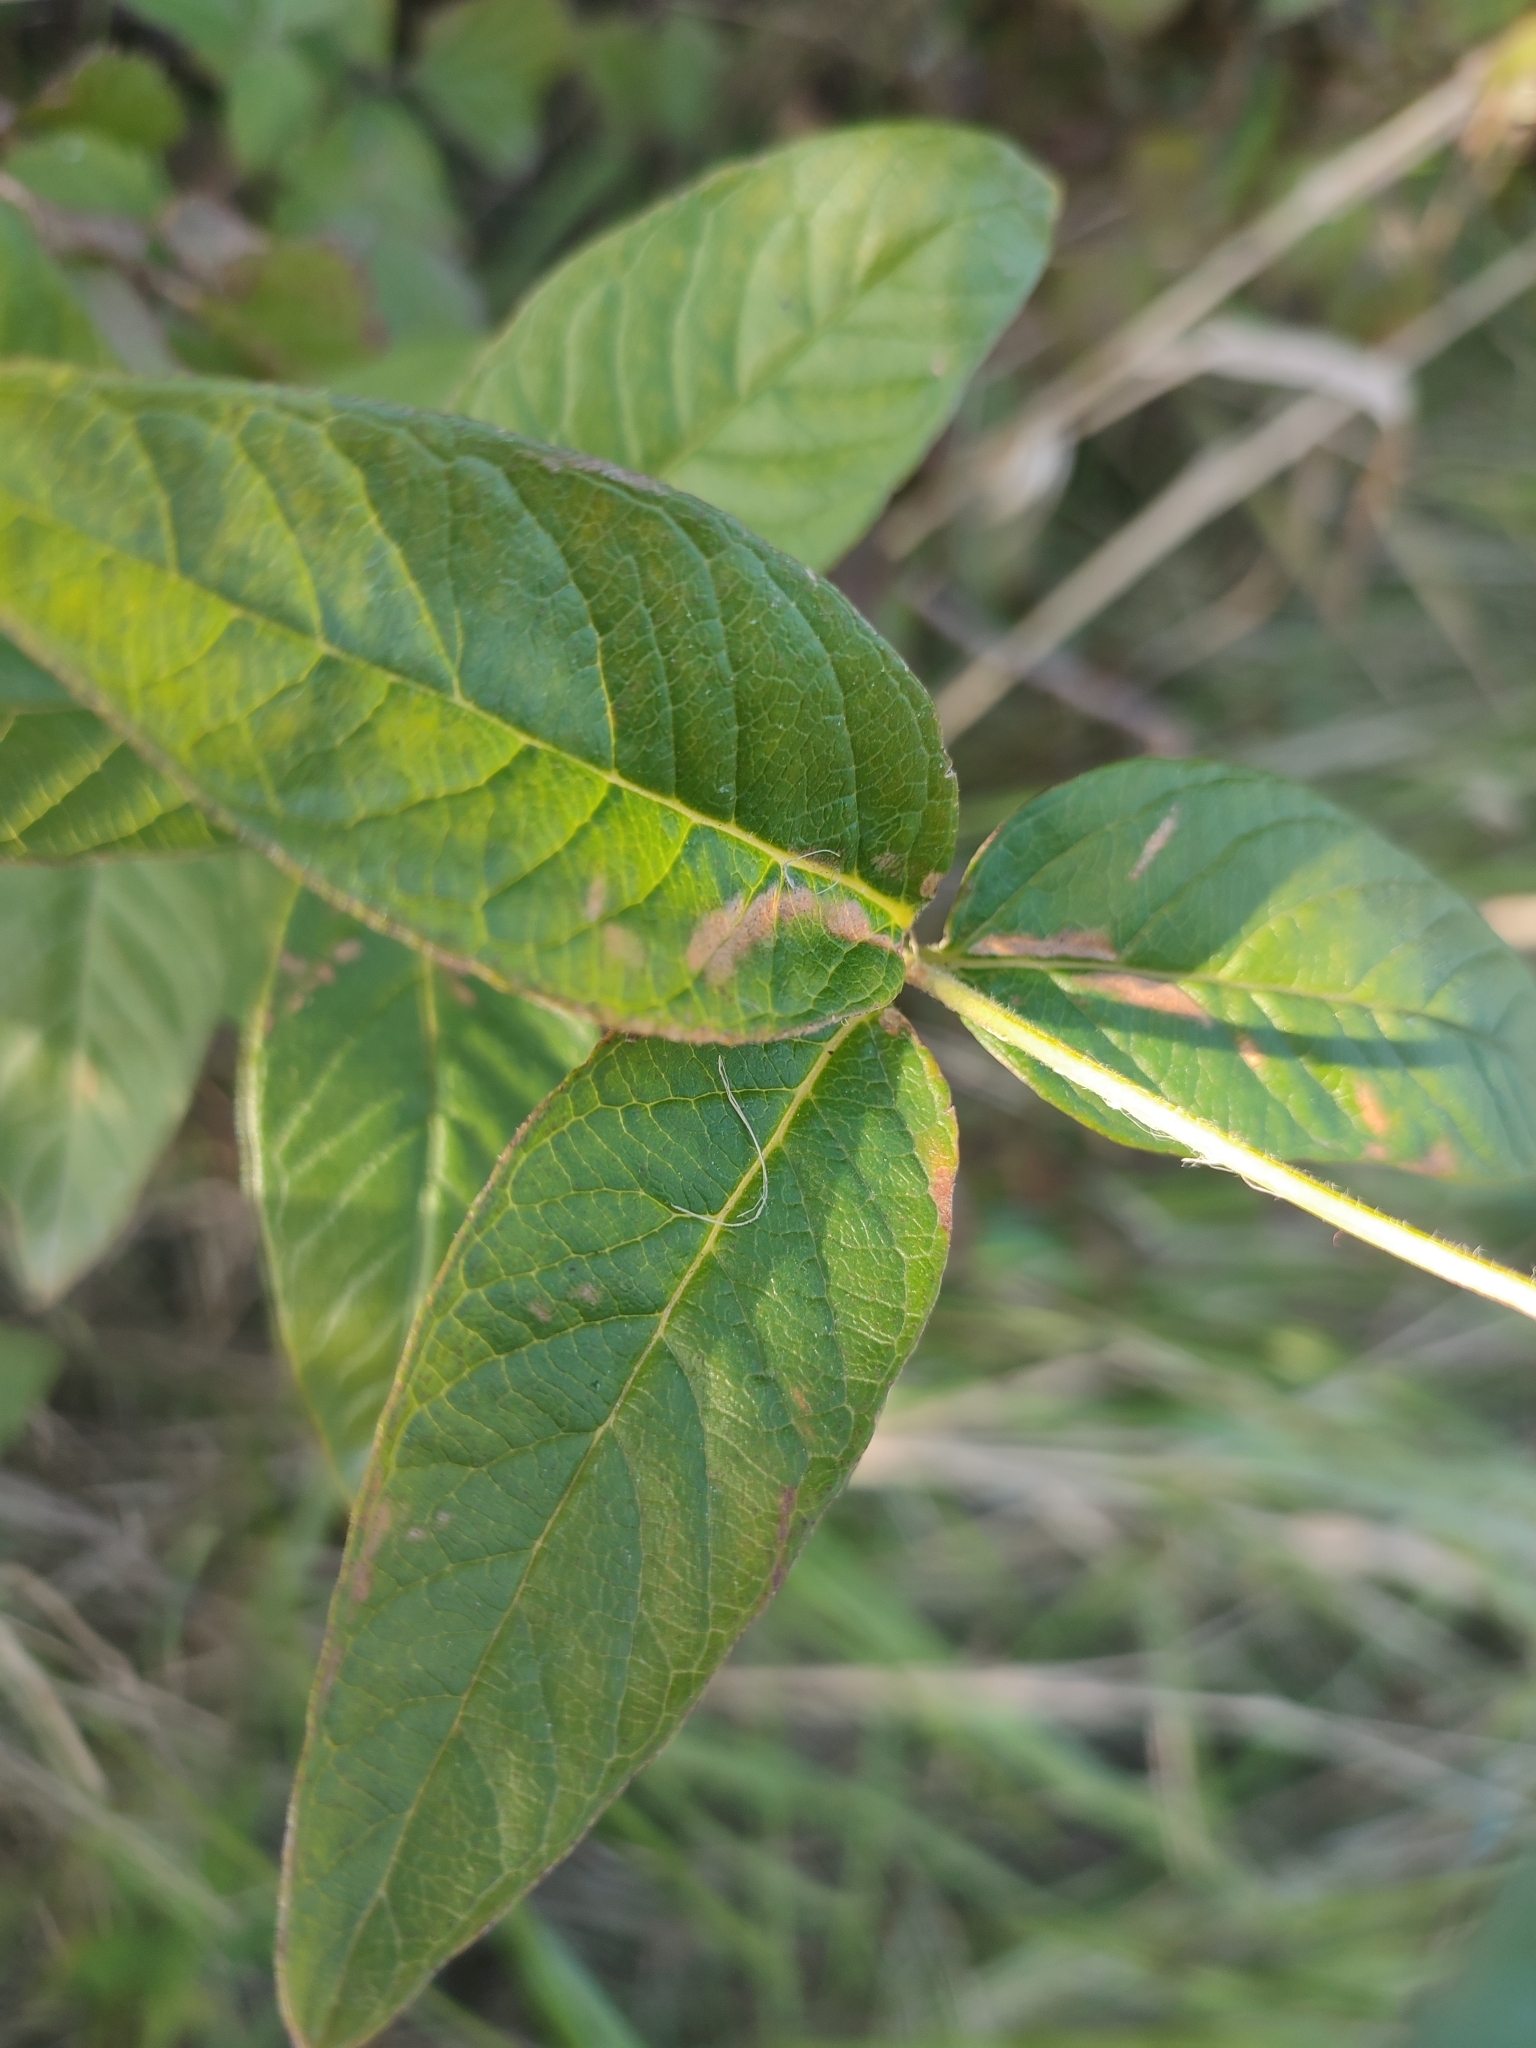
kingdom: Plantae
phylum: Tracheophyta
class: Magnoliopsida
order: Ericales
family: Primulaceae
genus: Lysimachia
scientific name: Lysimachia vulgaris
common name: Yellow loosestrife
